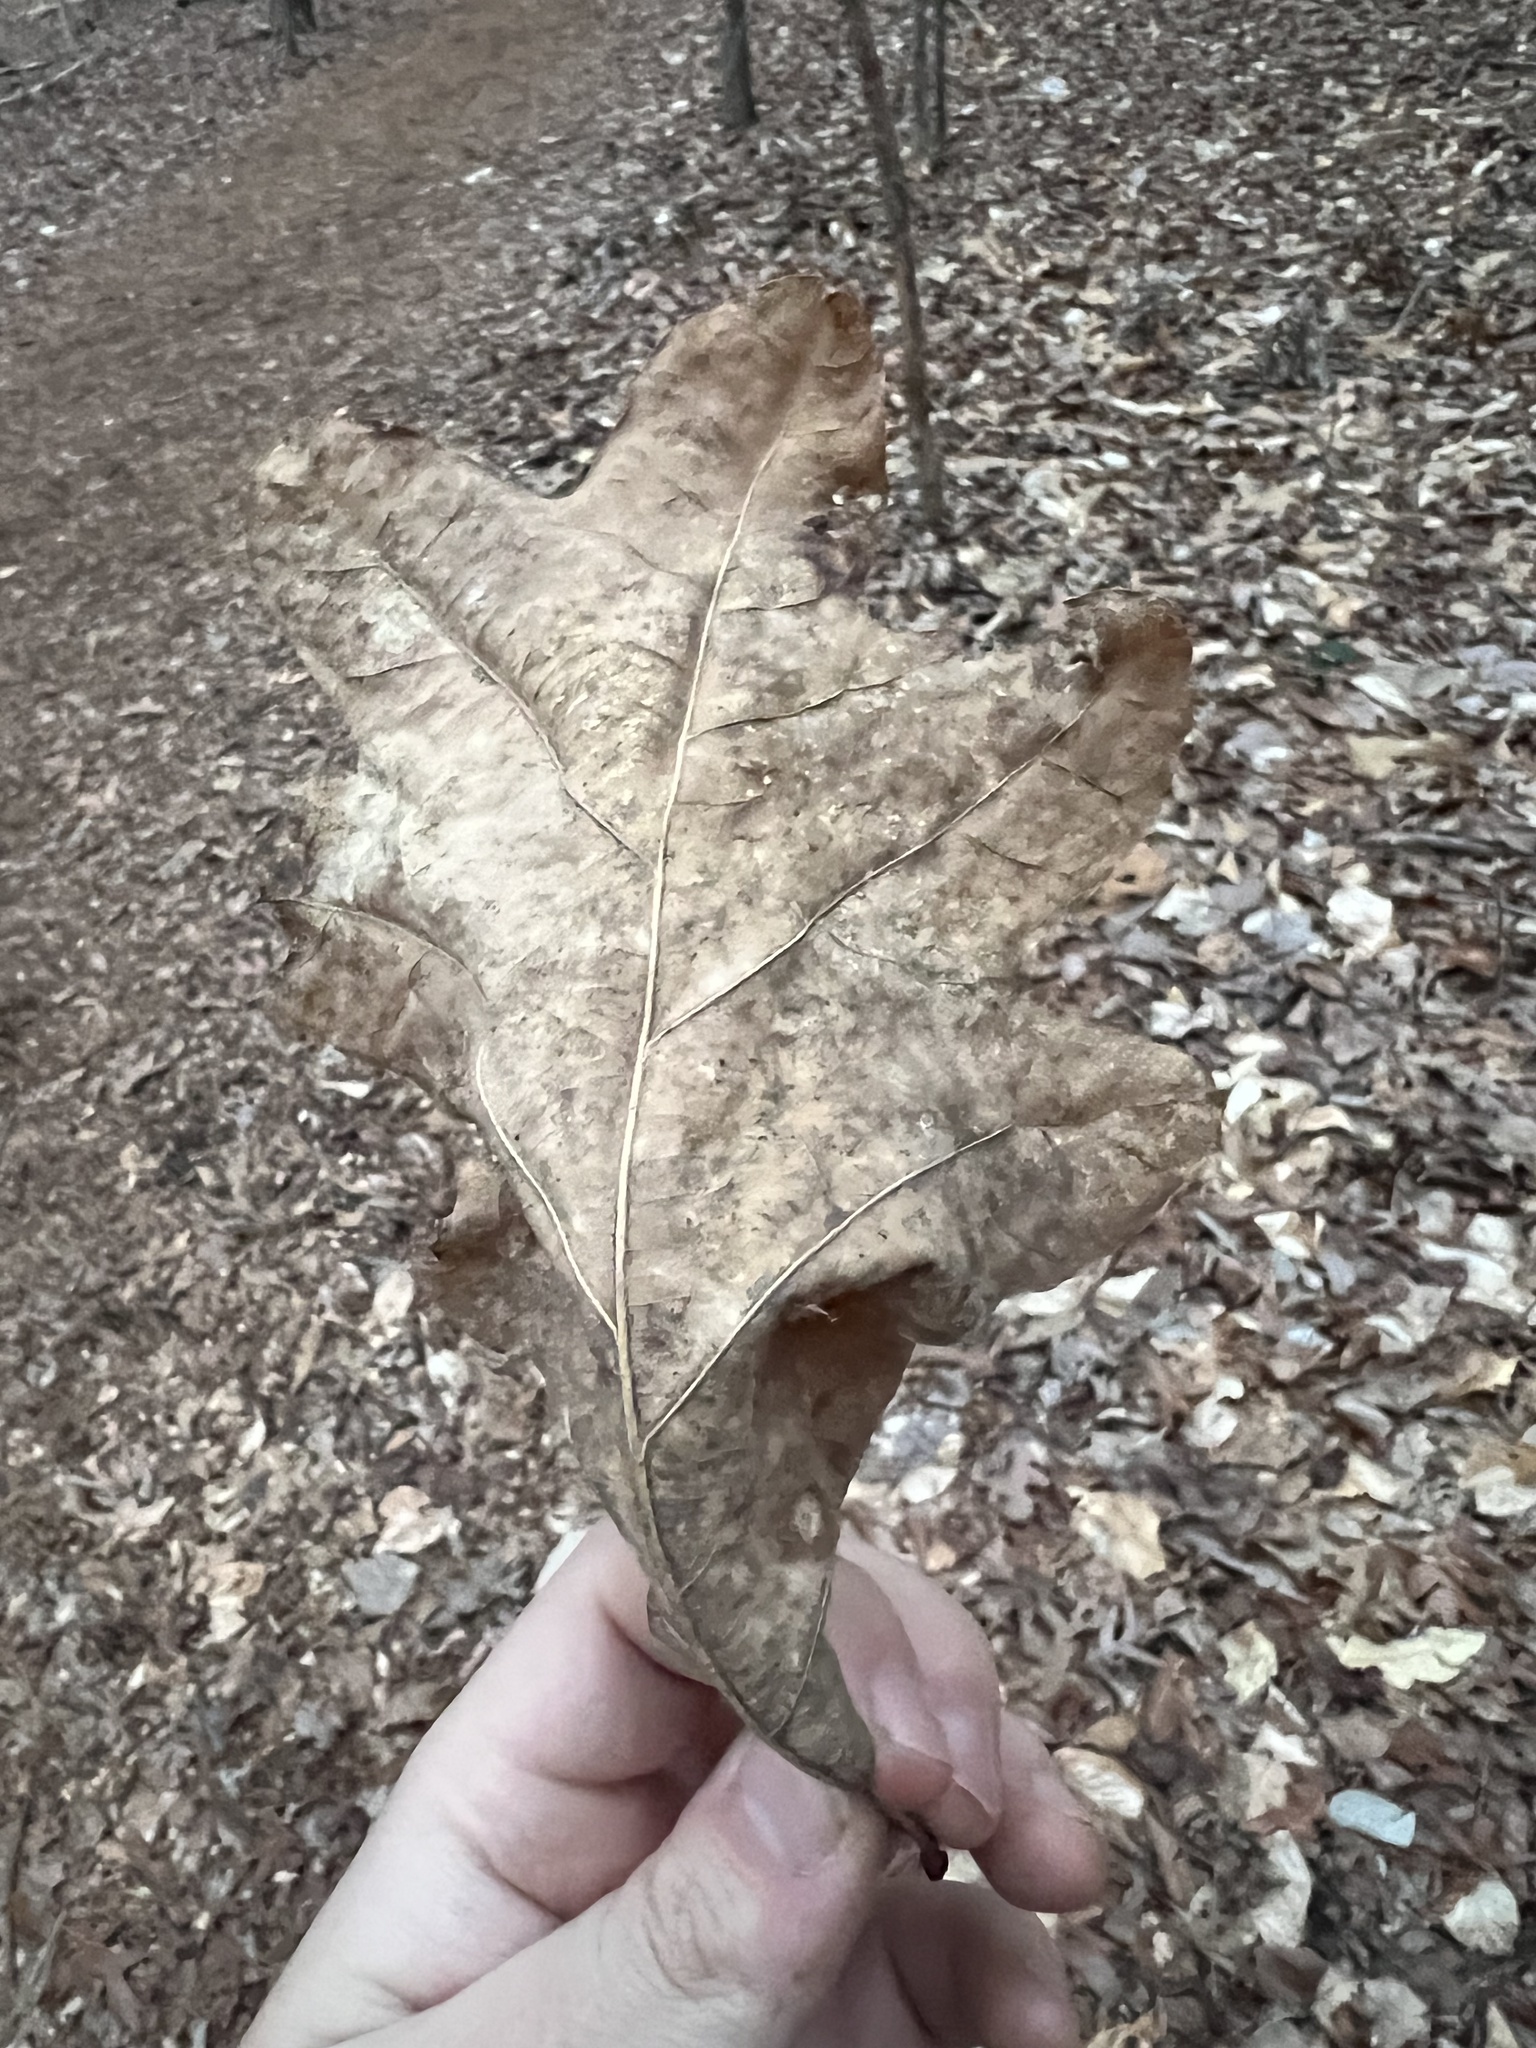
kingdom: Plantae
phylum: Tracheophyta
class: Magnoliopsida
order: Fagales
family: Fagaceae
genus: Quercus
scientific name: Quercus alba
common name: White oak
